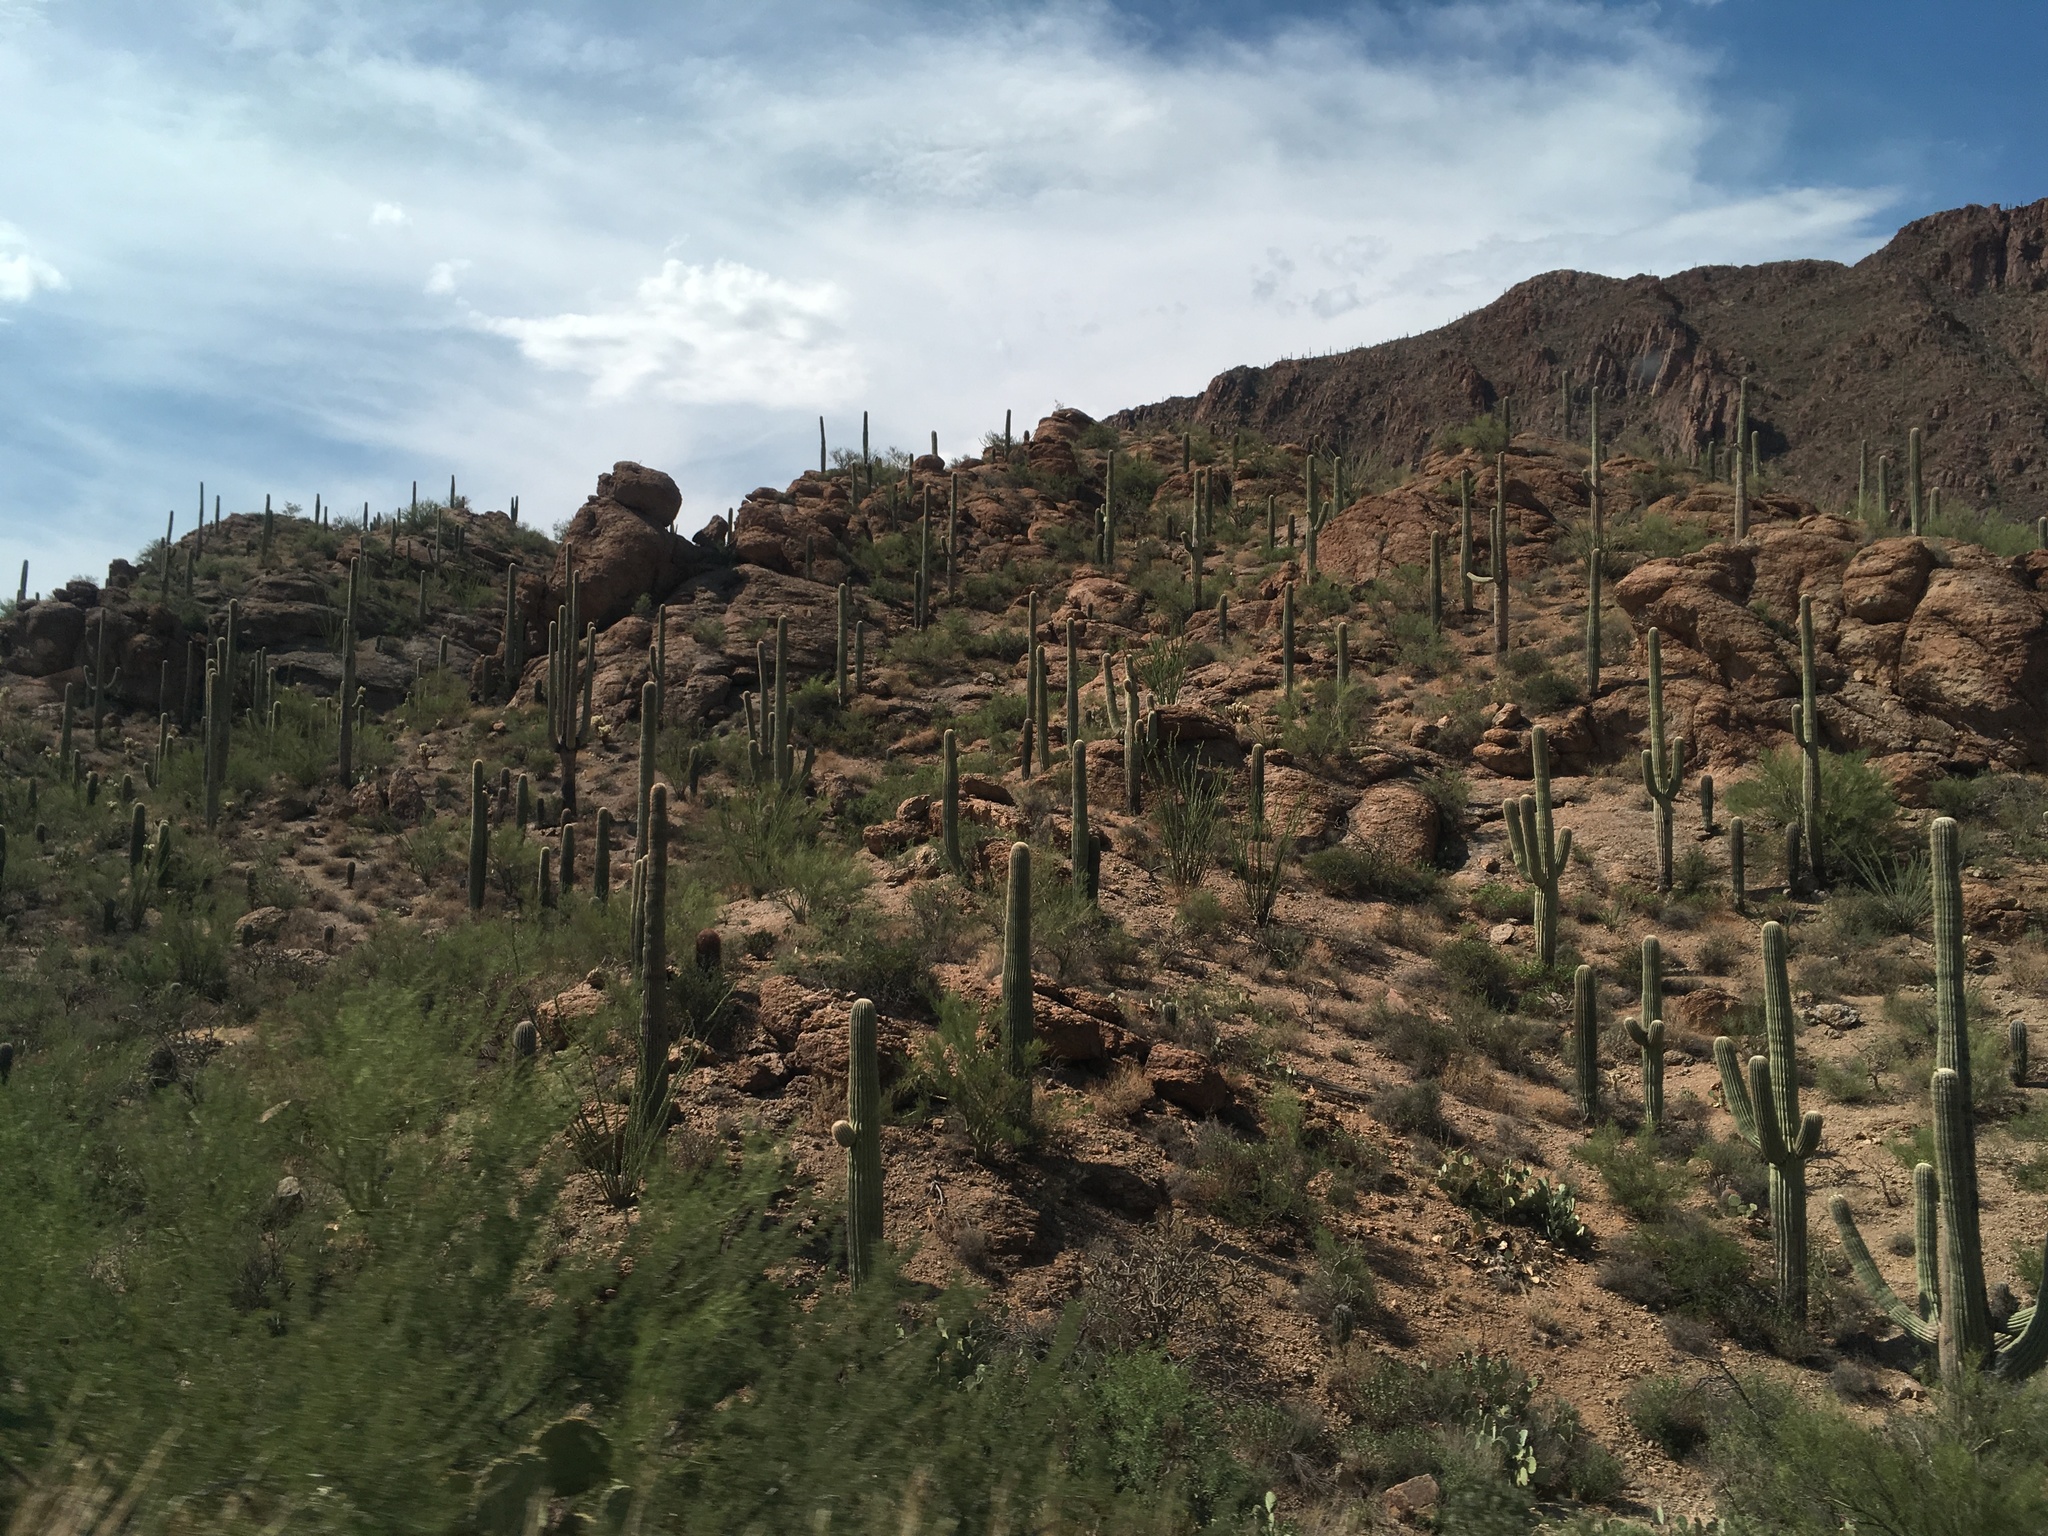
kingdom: Plantae
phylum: Tracheophyta
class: Magnoliopsida
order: Caryophyllales
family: Cactaceae
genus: Carnegiea
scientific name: Carnegiea gigantea
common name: Saguaro
